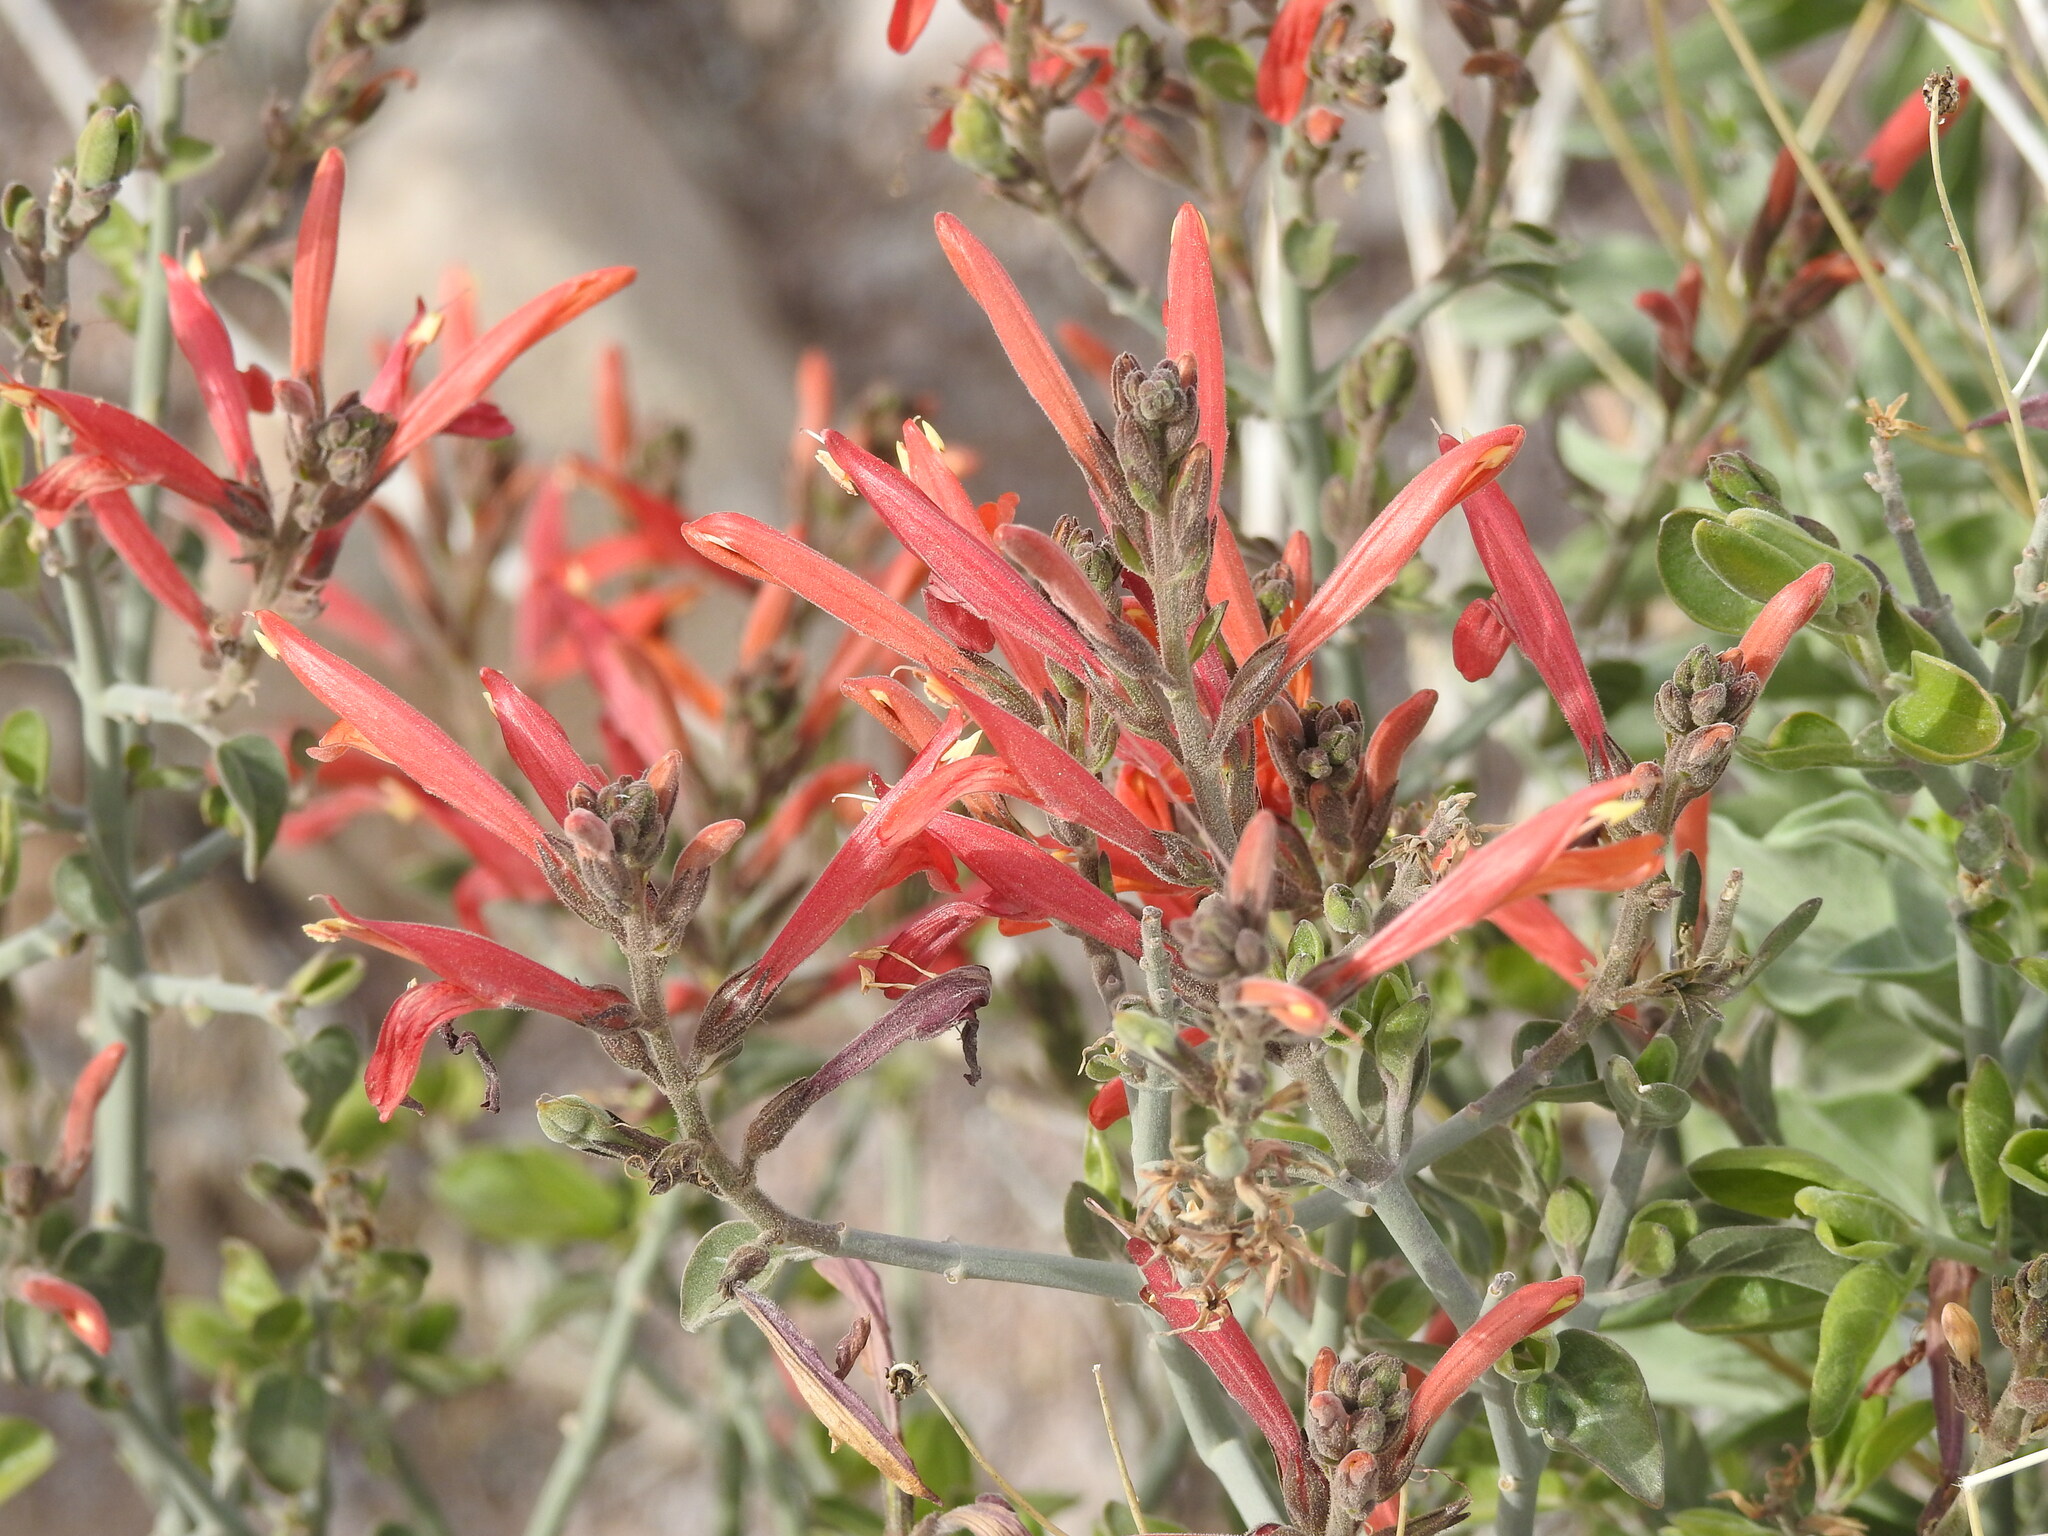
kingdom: Plantae
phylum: Tracheophyta
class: Magnoliopsida
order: Lamiales
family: Acanthaceae
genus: Justicia
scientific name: Justicia californica
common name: Chuparosa-honeysuckle
